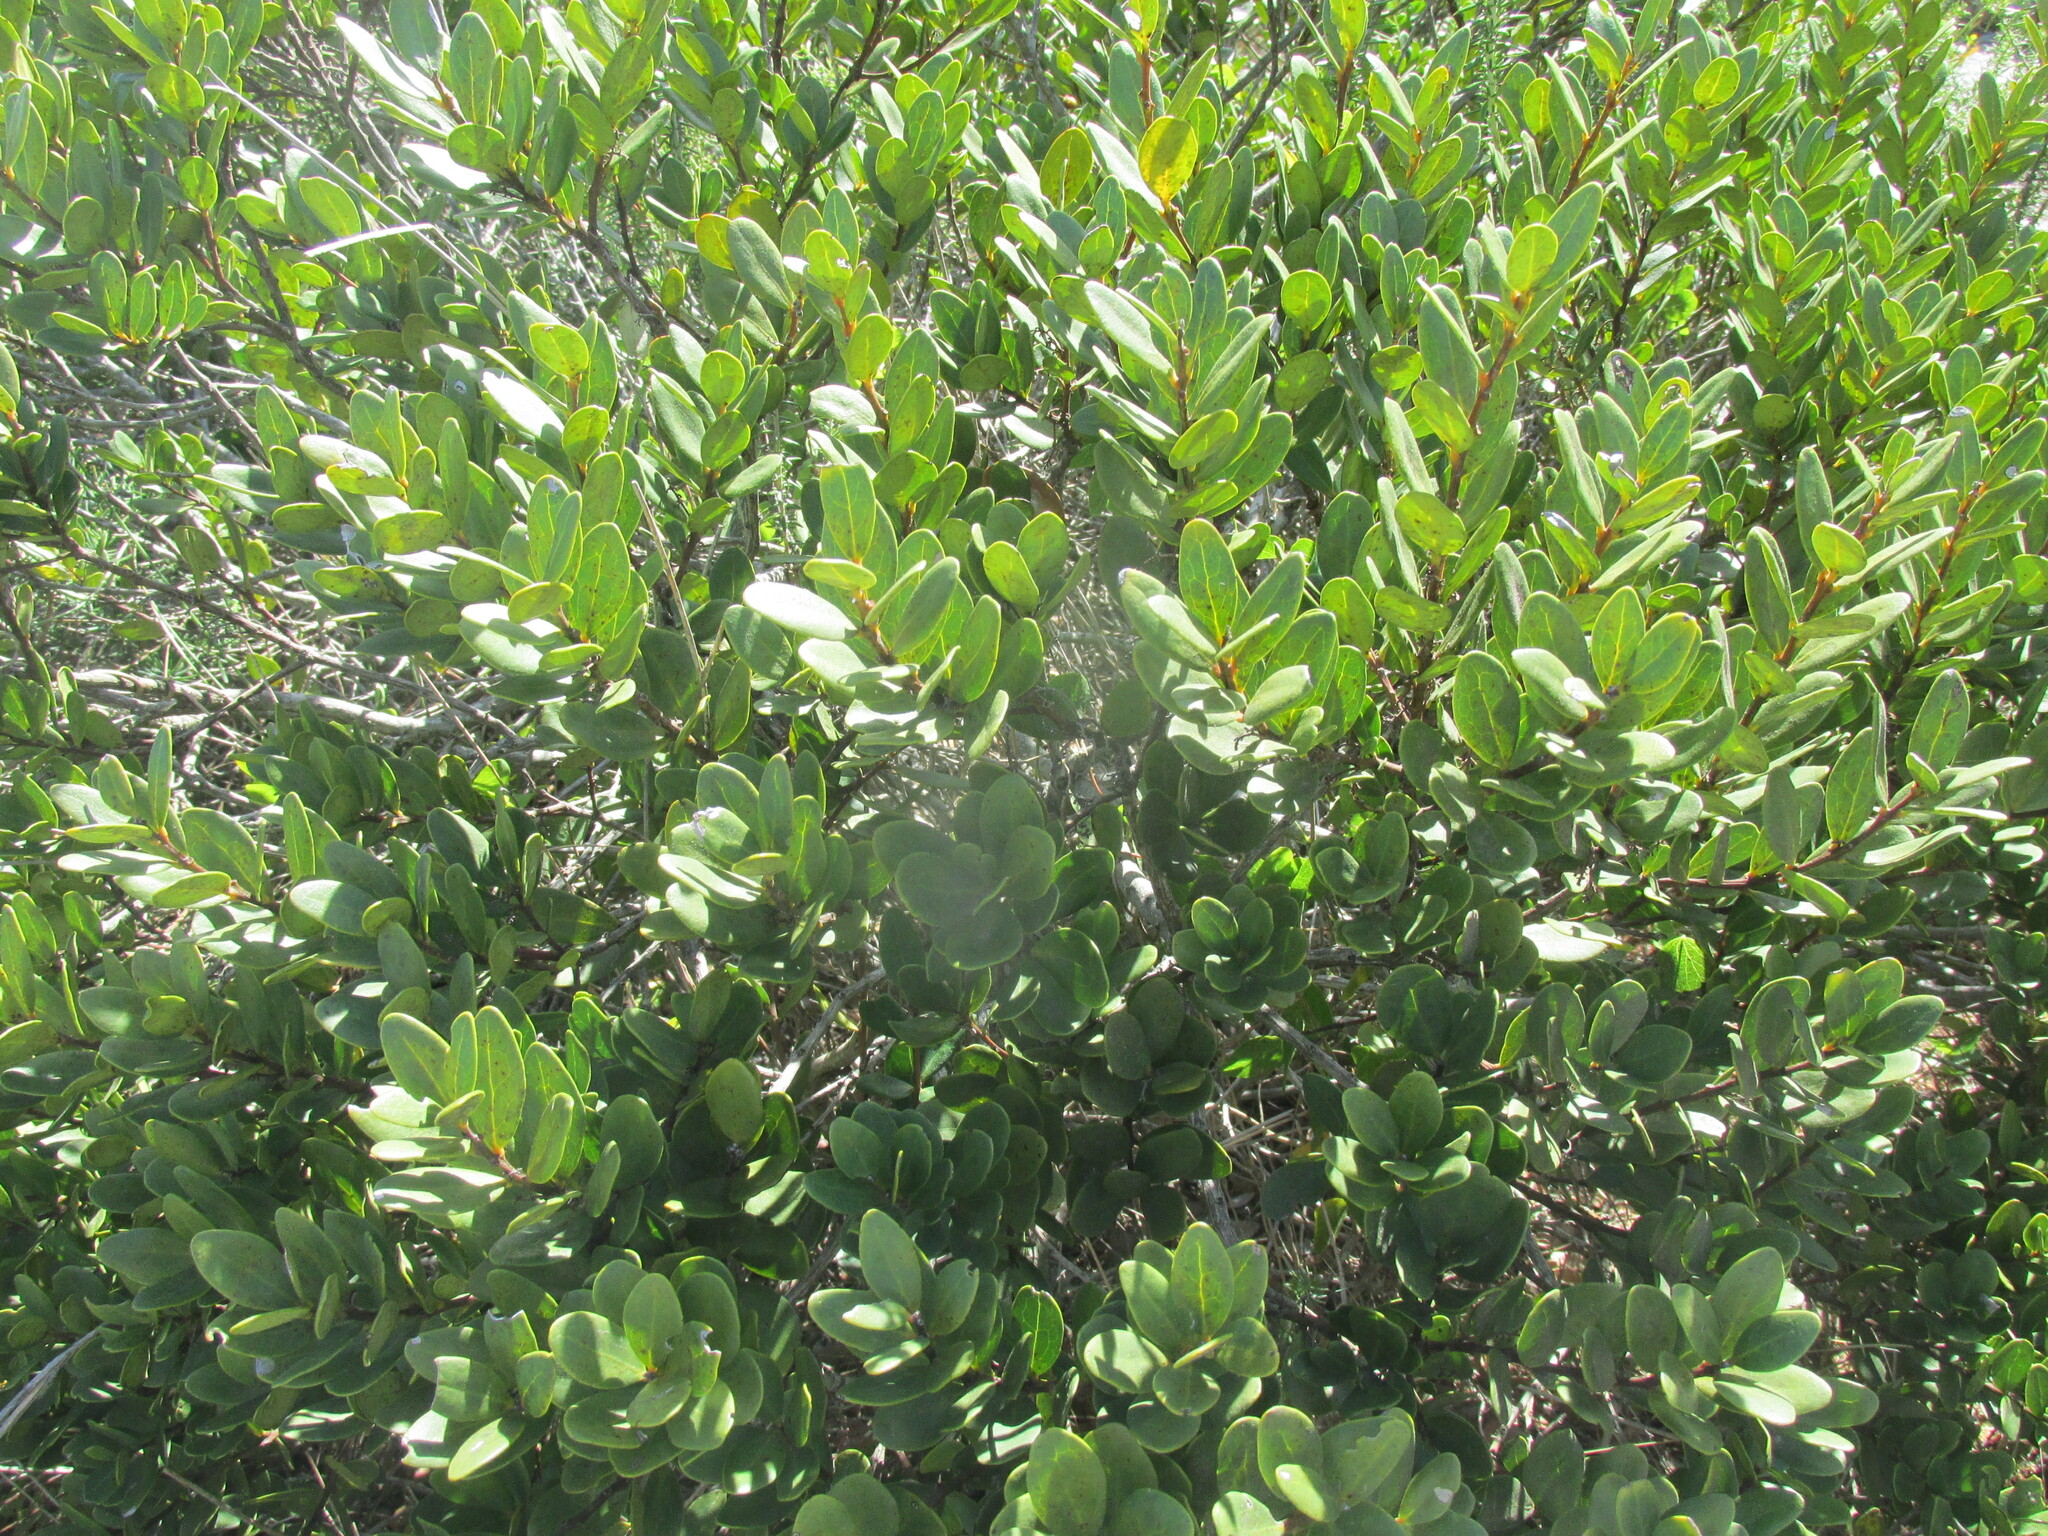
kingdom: Plantae
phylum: Tracheophyta
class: Magnoliopsida
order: Ericales
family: Ebenaceae
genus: Euclea
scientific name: Euclea racemosa
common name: Dune guarri
